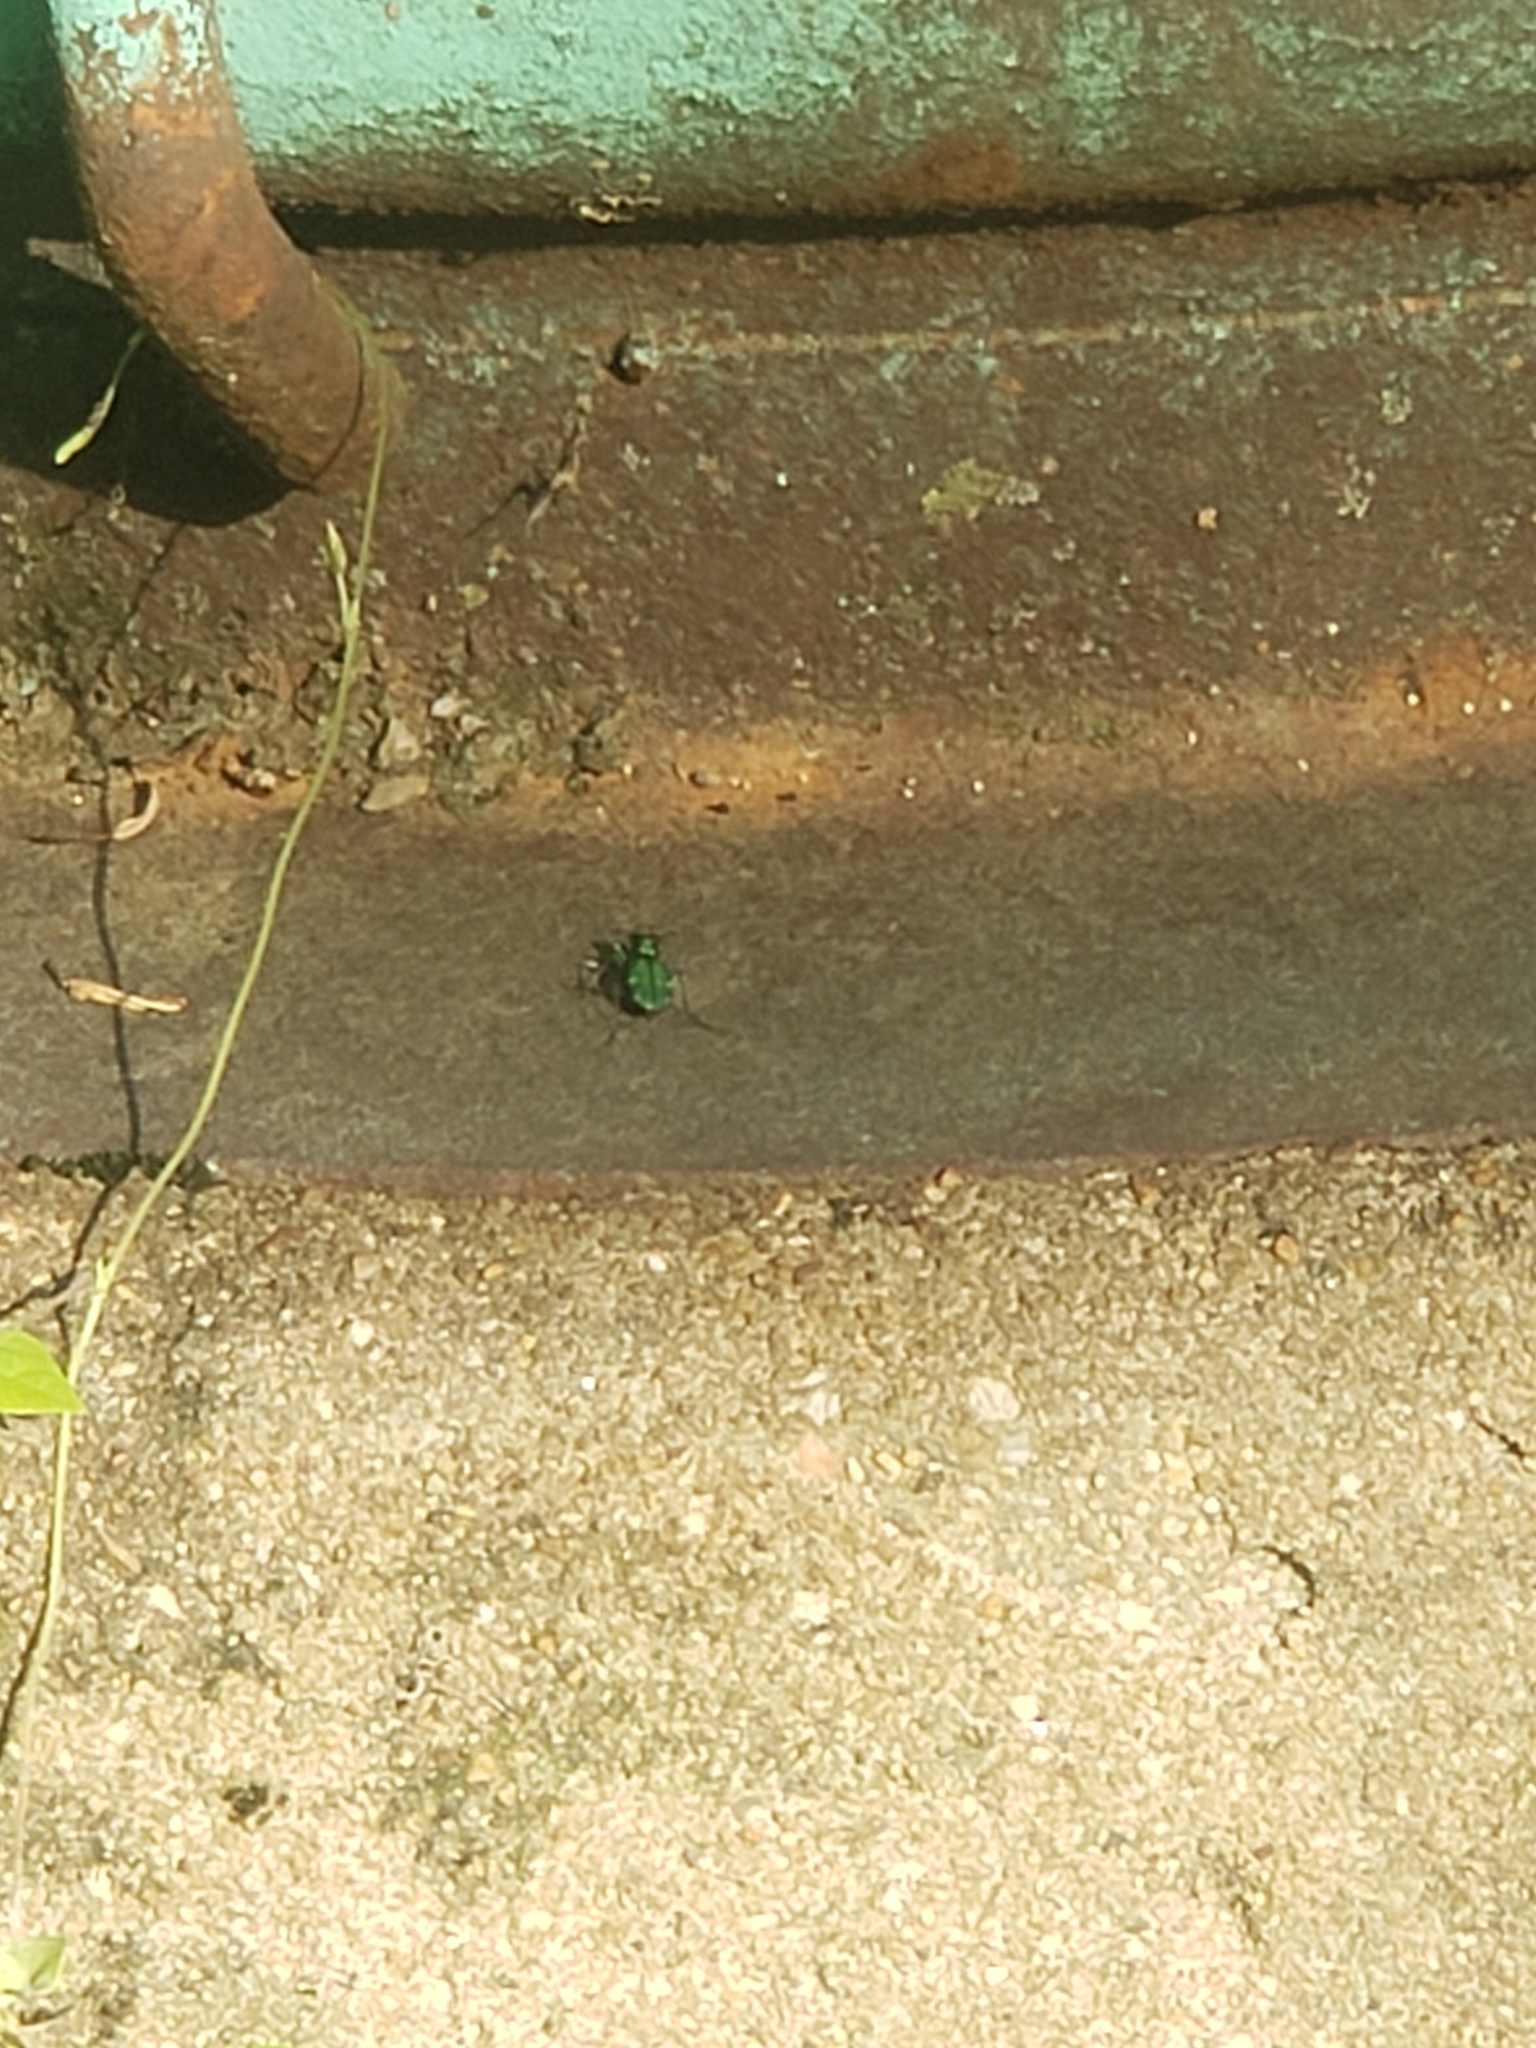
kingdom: Animalia
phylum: Arthropoda
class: Insecta
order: Coleoptera
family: Carabidae
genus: Cicindela
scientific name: Cicindela sexguttata
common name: Six-spotted tiger beetle
